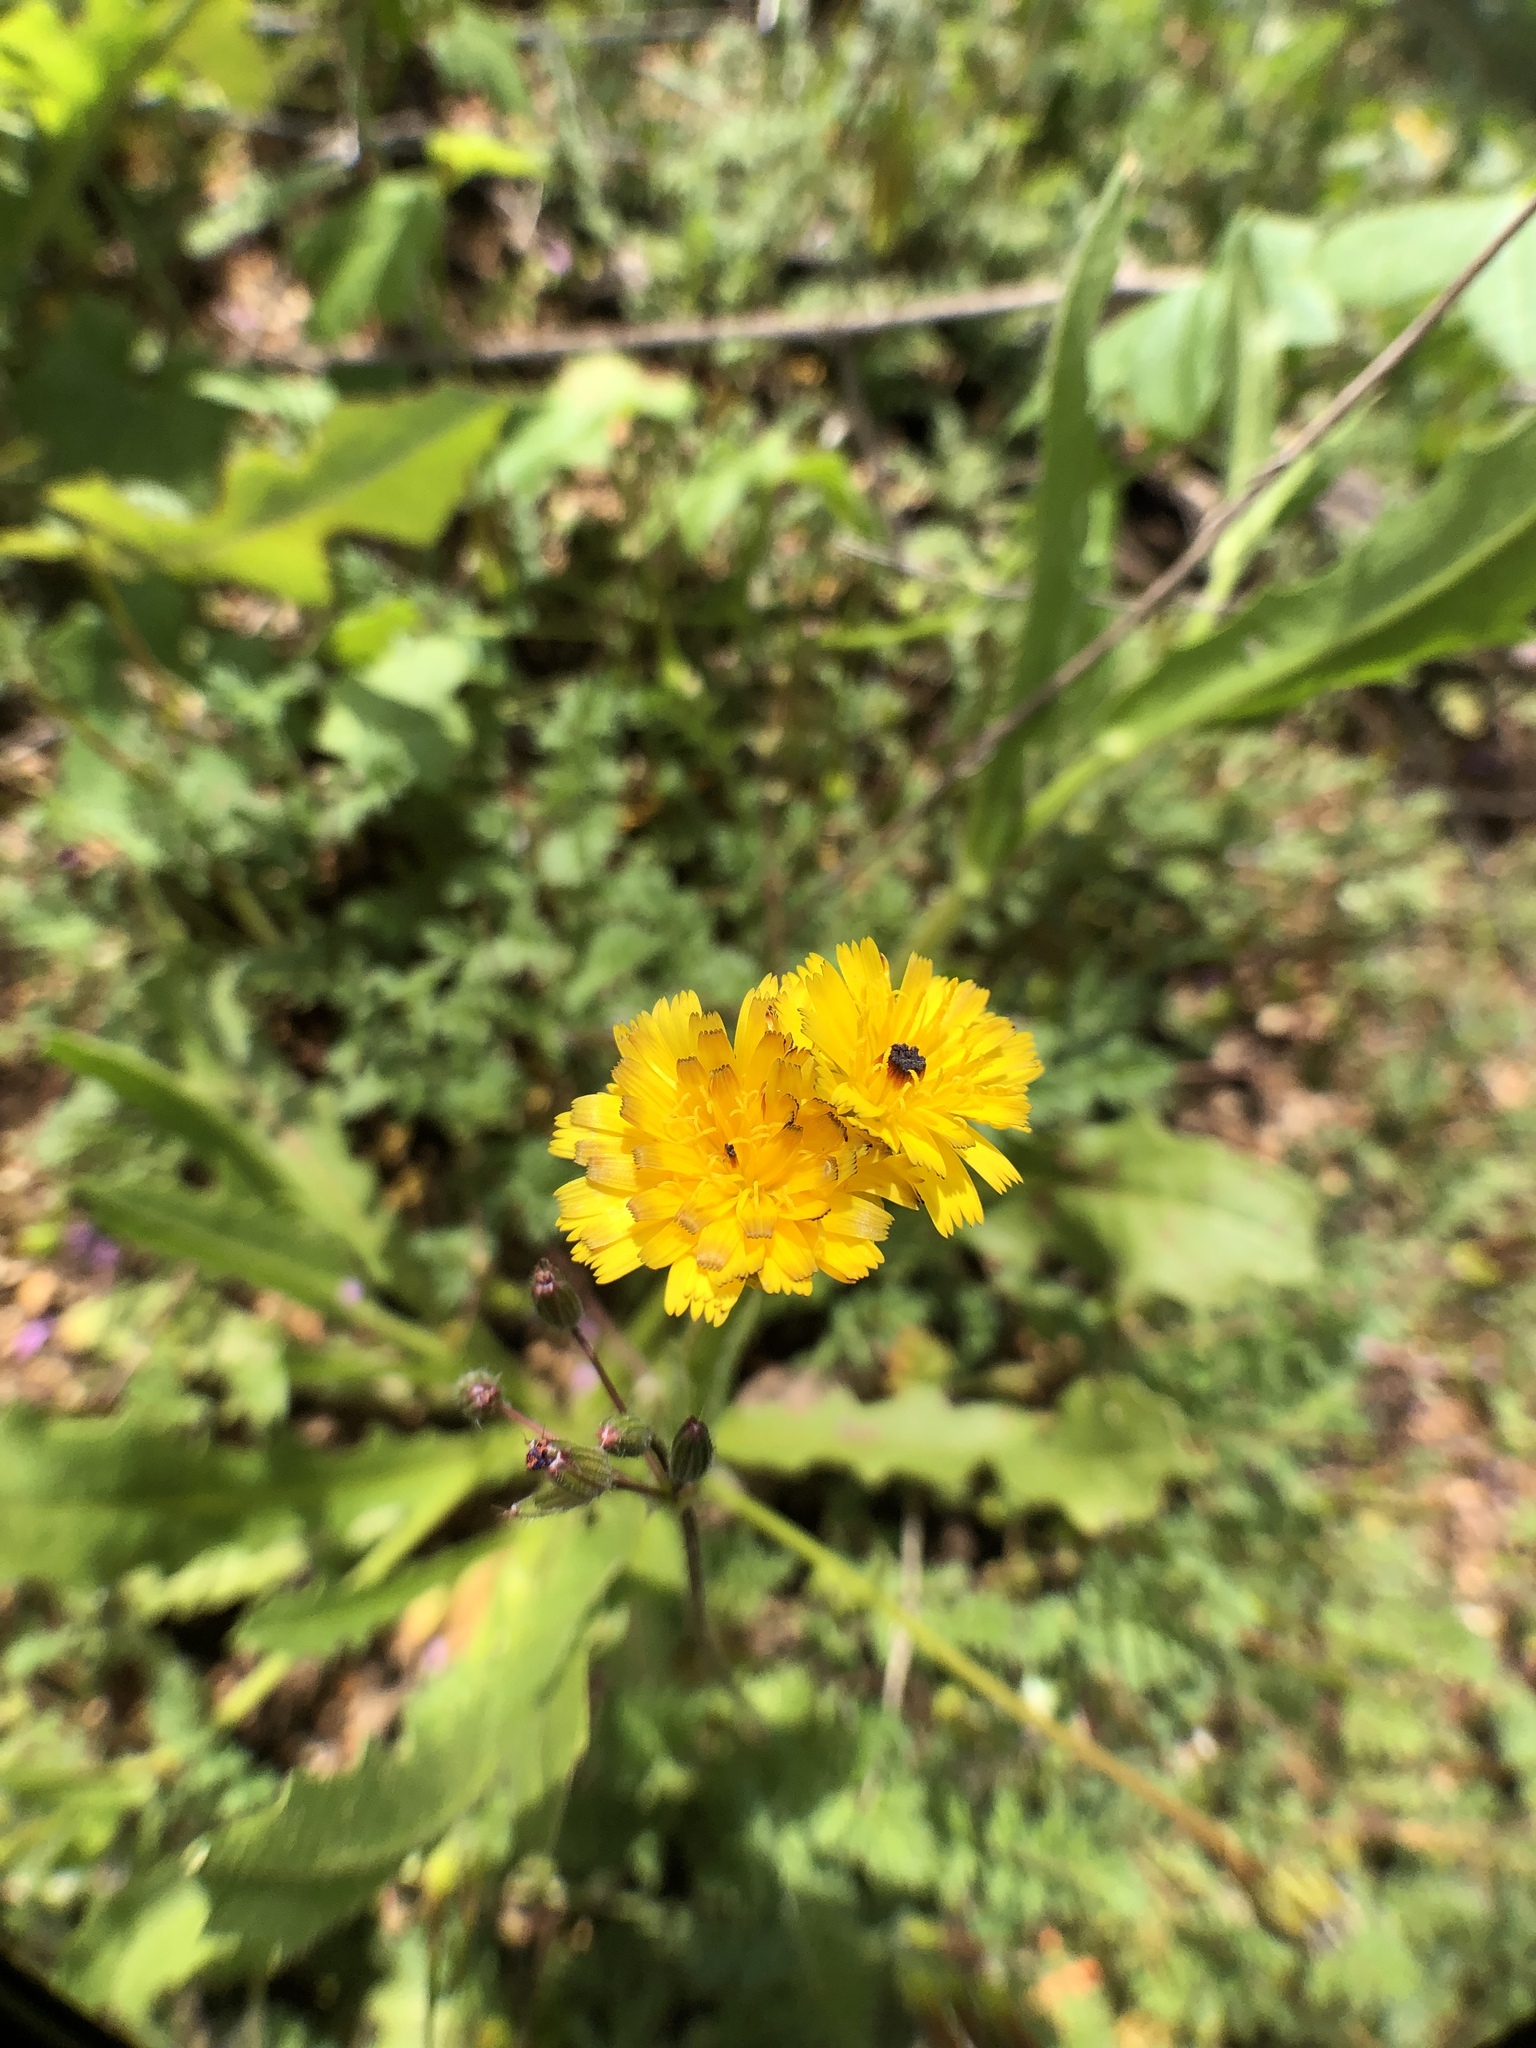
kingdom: Plantae
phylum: Tracheophyta
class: Magnoliopsida
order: Asterales
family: Asteraceae
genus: Hedypnois
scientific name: Hedypnois rhagadioloides
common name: Cretan weed
